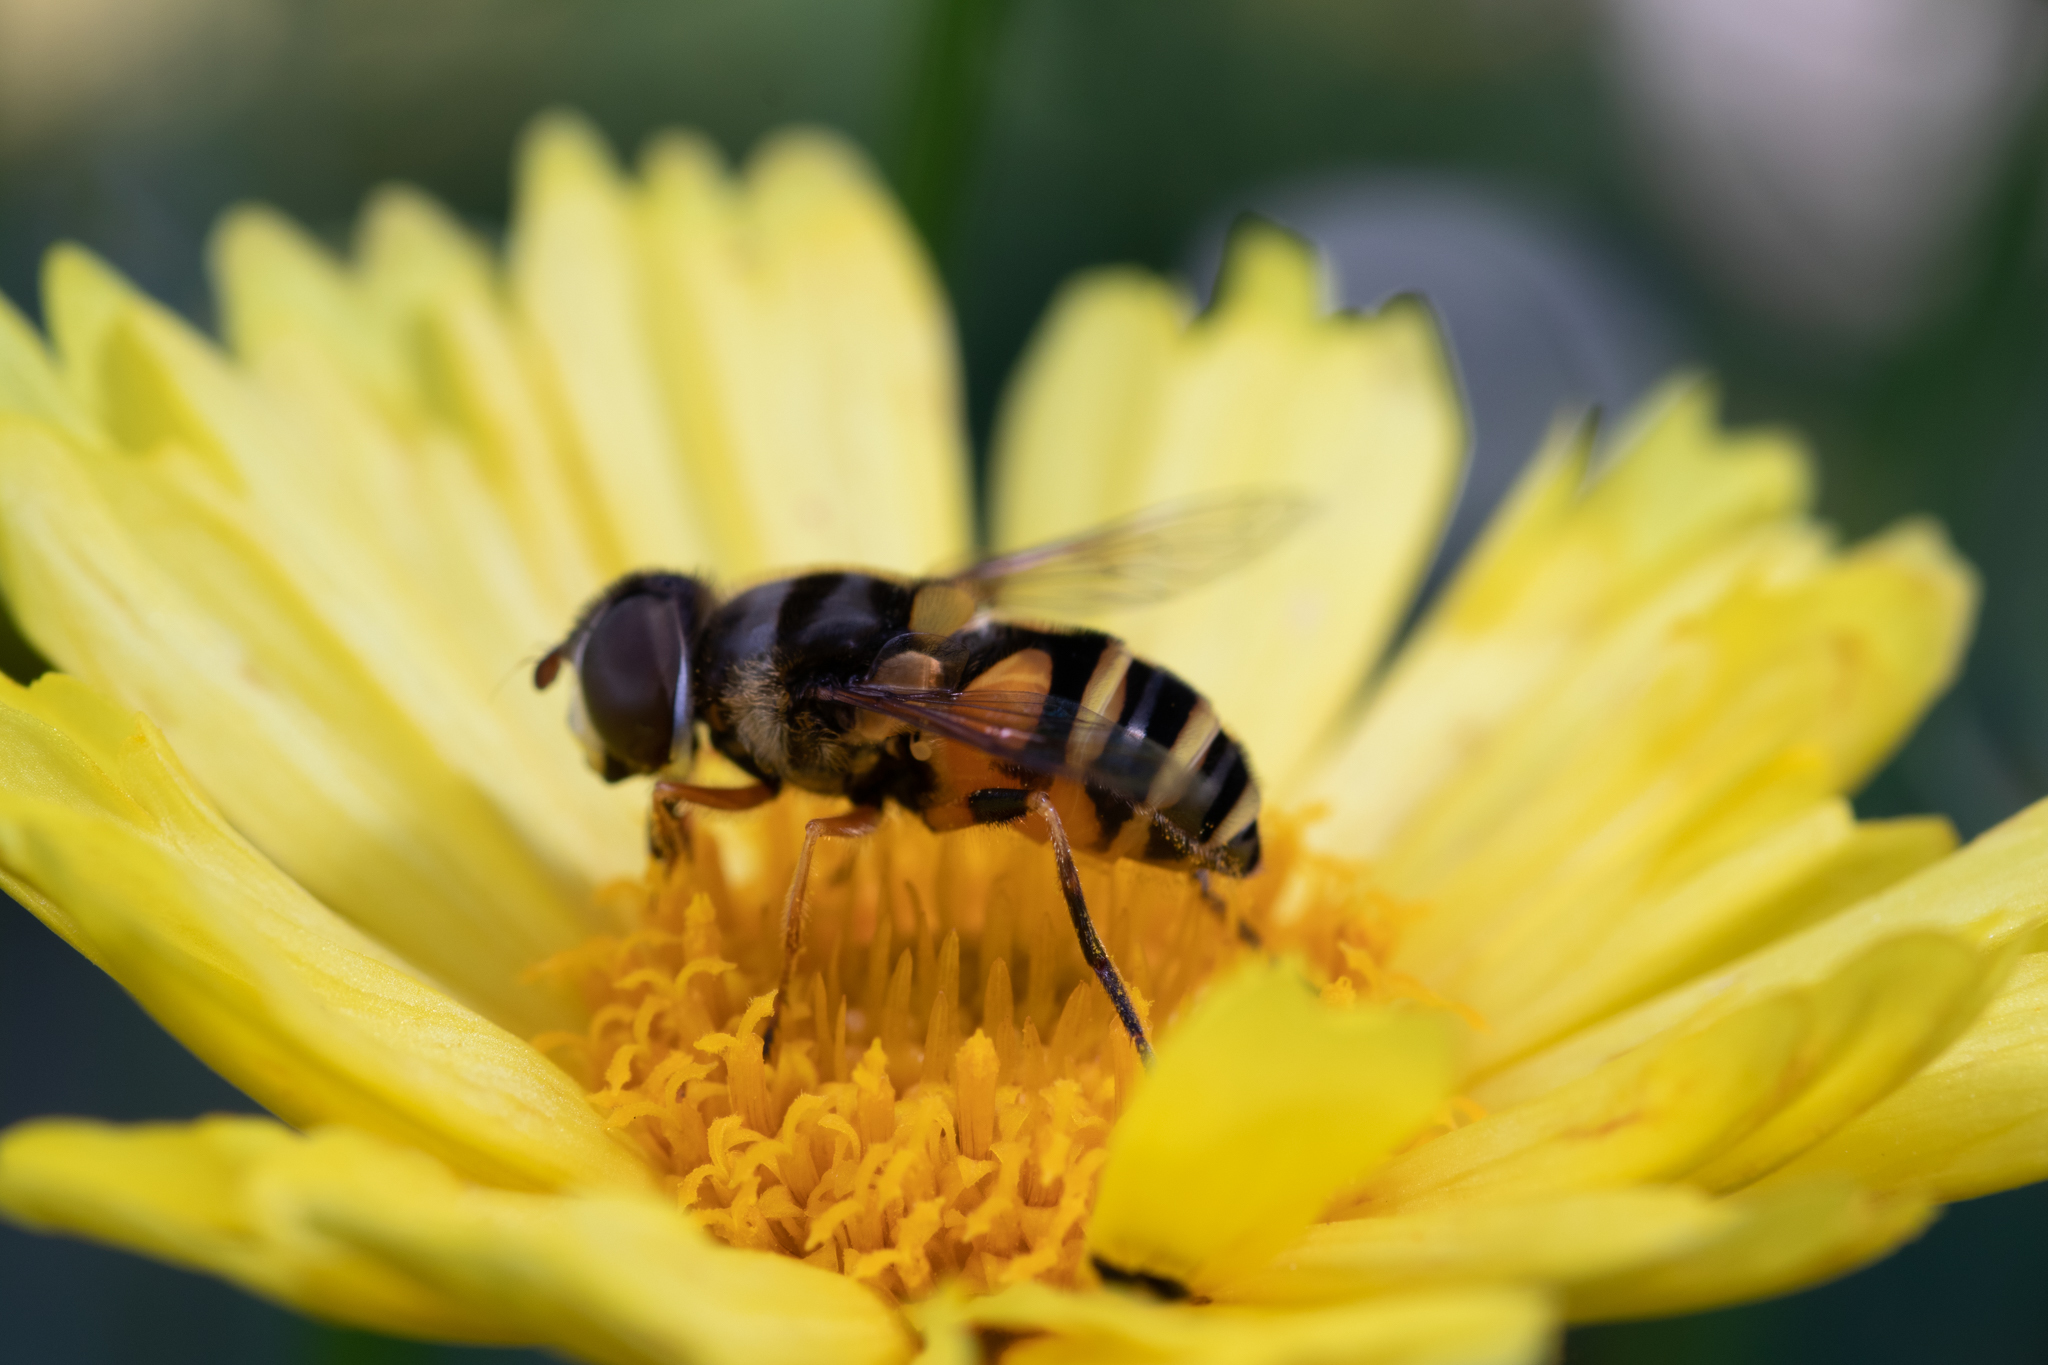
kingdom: Animalia
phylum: Arthropoda
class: Insecta
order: Diptera
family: Syrphidae
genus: Eristalis
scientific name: Eristalis transversa
